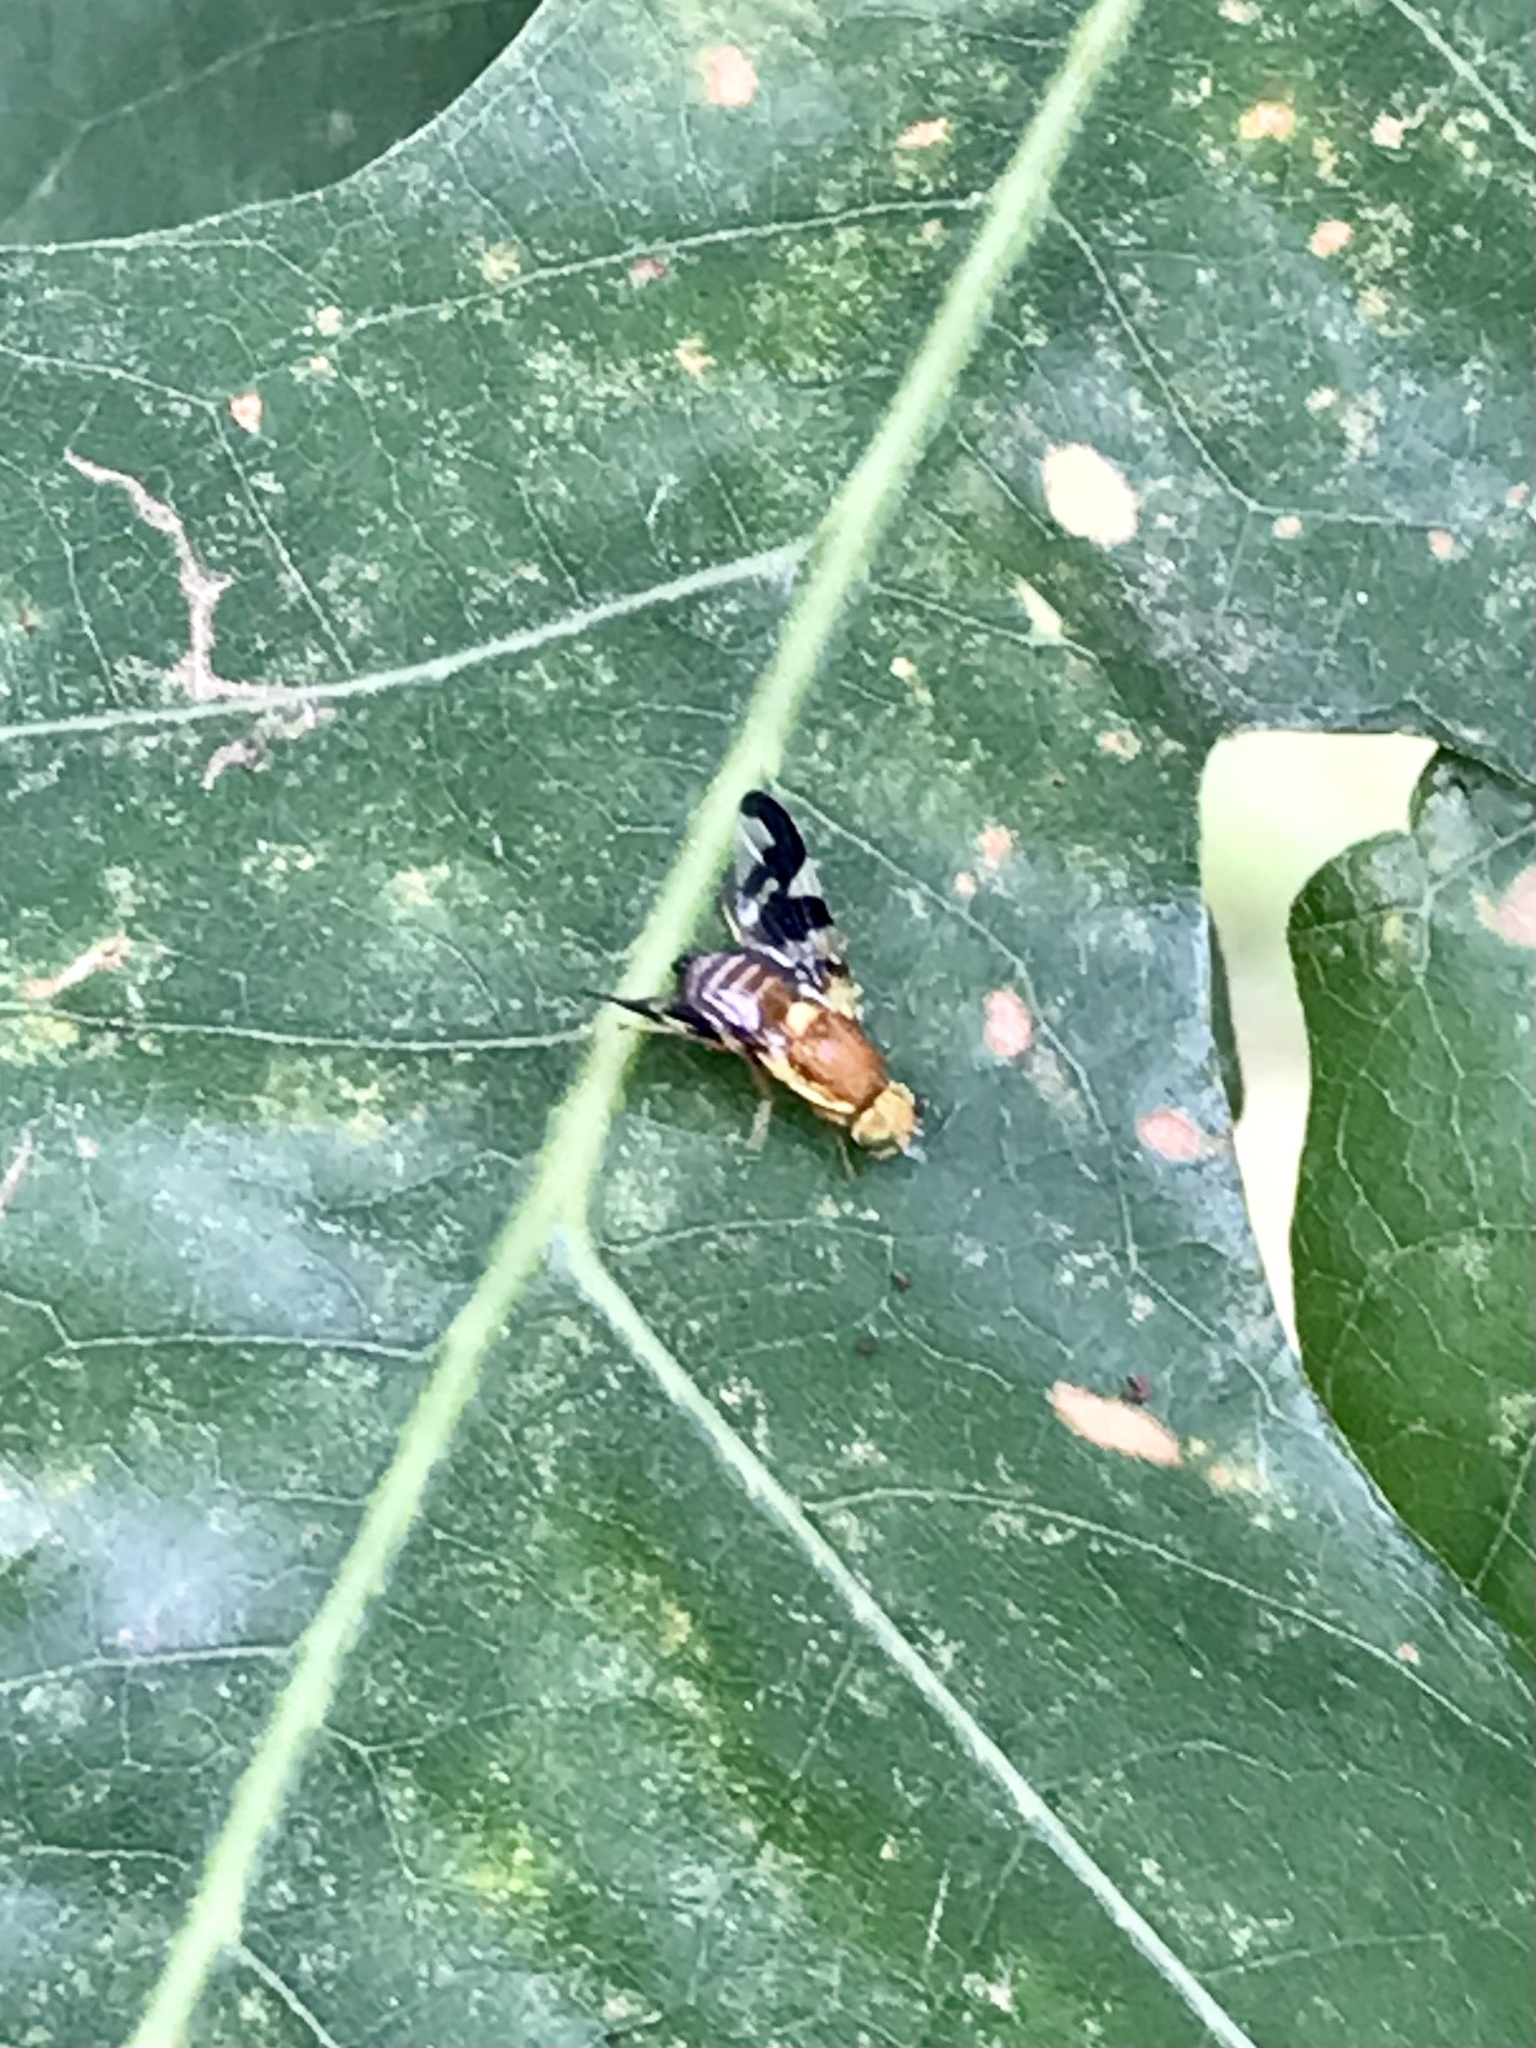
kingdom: Animalia
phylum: Arthropoda
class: Insecta
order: Diptera
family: Tephritidae
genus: Rhagoletis
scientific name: Rhagoletis suavis
